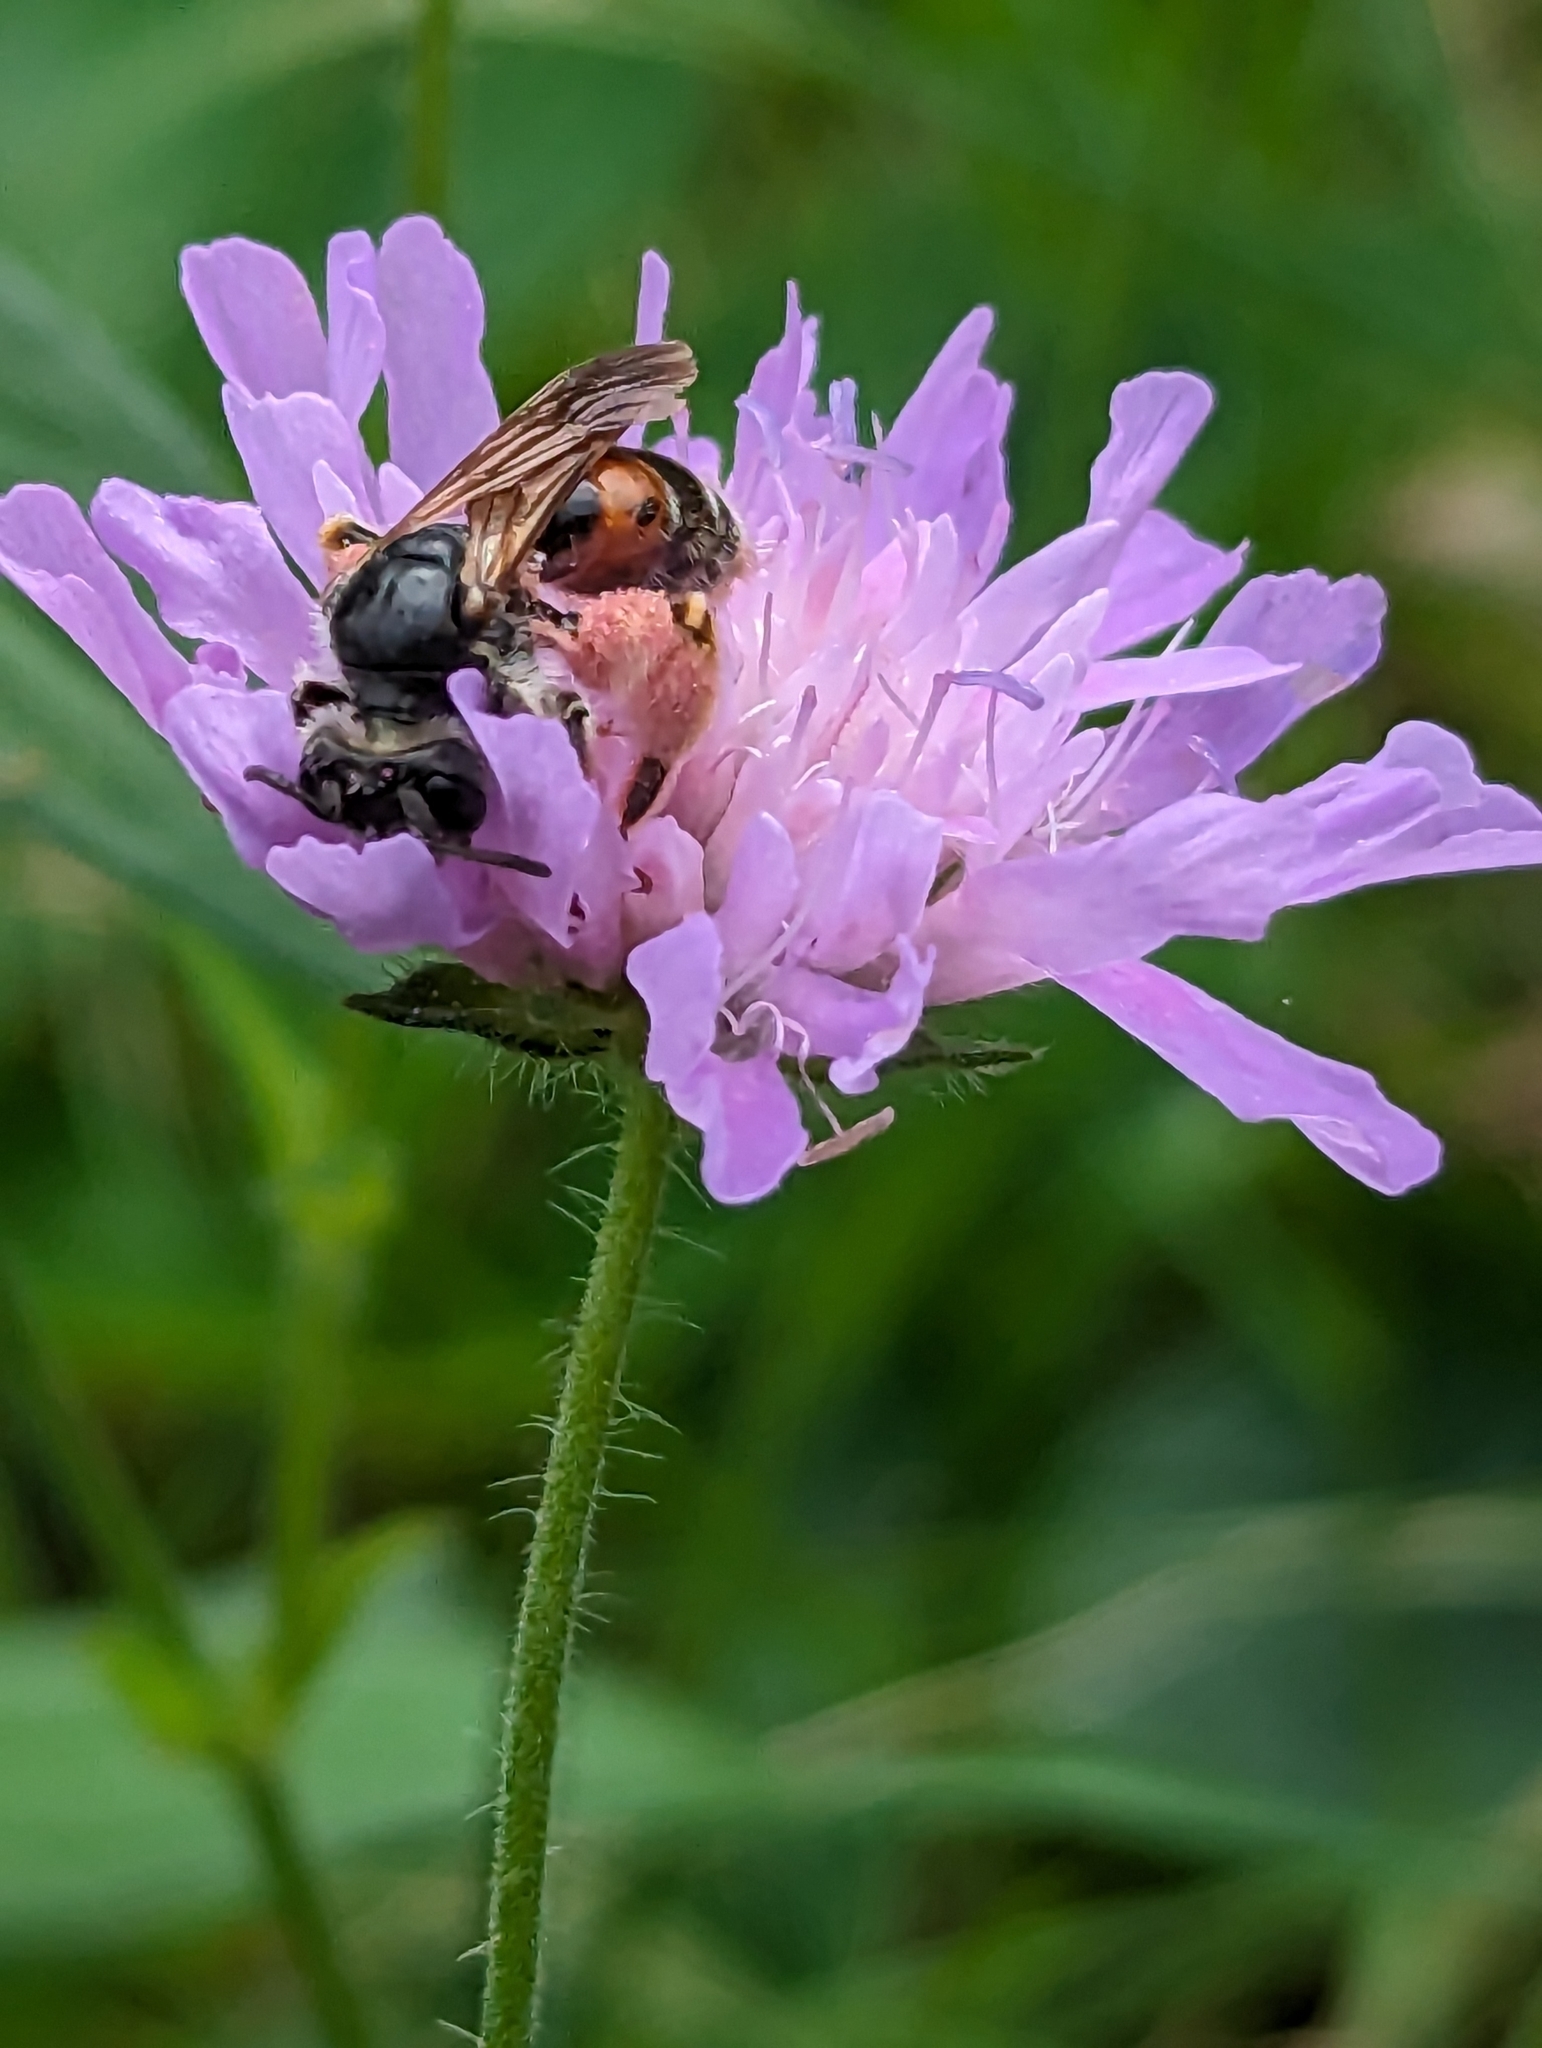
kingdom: Animalia
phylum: Arthropoda
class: Insecta
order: Hymenoptera
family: Andrenidae
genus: Andrena
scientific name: Andrena hattorfiana
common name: Large scabious mining bee
